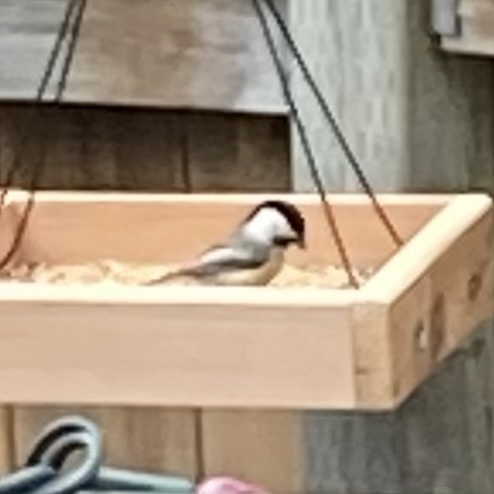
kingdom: Animalia
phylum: Chordata
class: Aves
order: Passeriformes
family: Paridae
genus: Poecile
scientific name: Poecile atricapillus
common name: Black-capped chickadee
